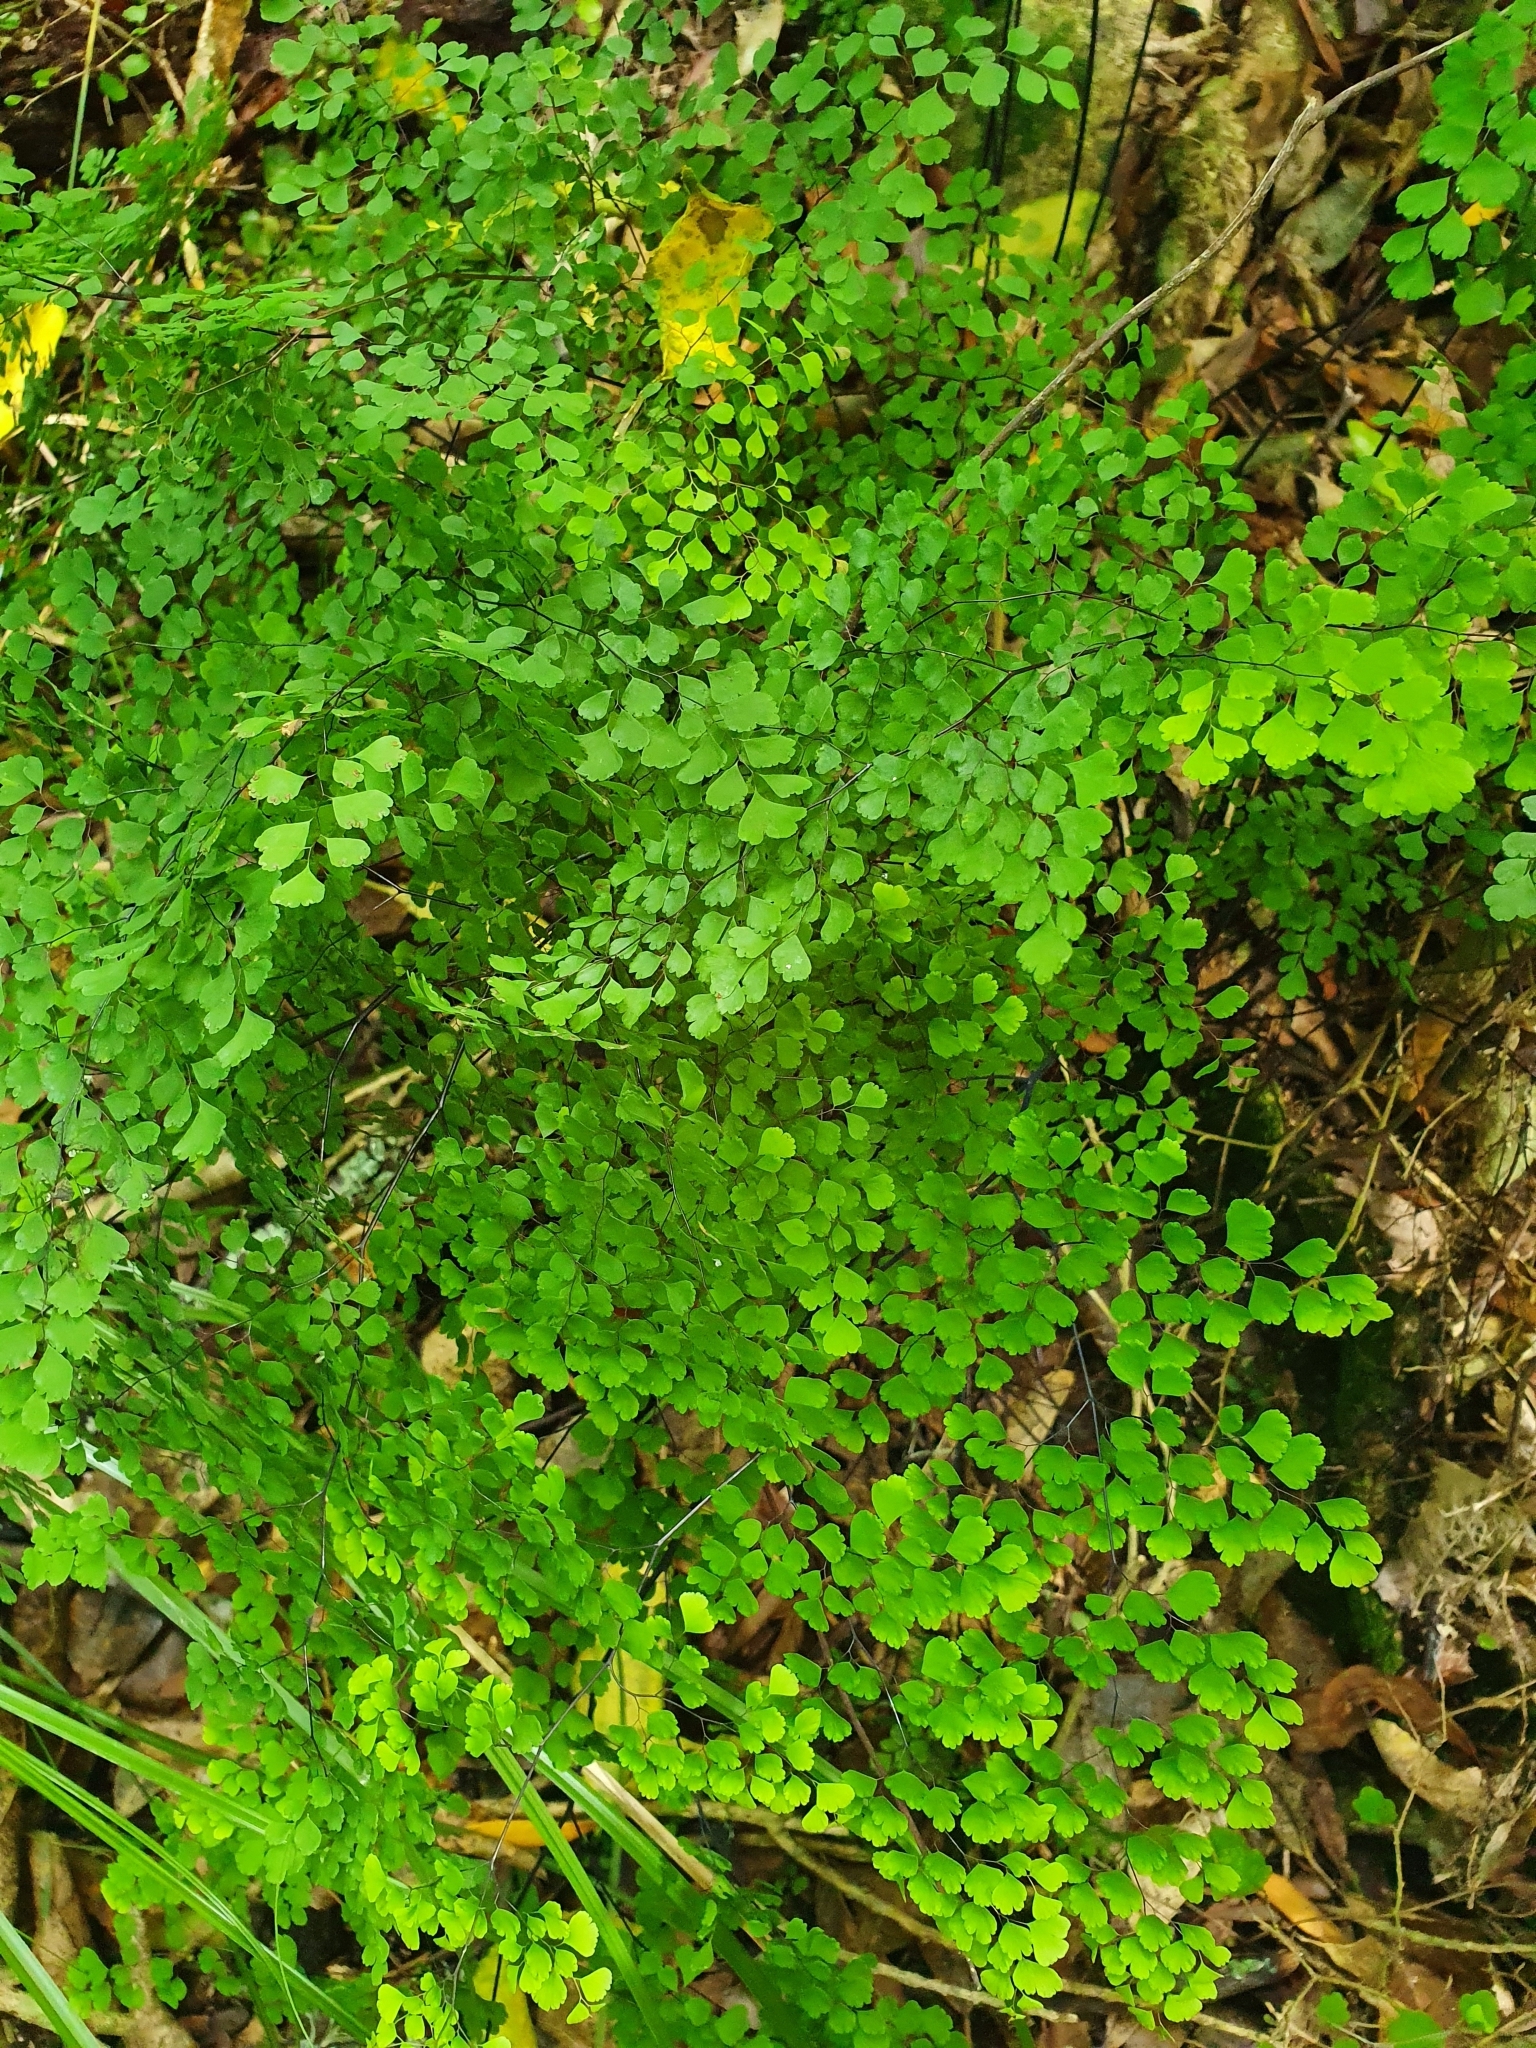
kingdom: Plantae
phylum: Tracheophyta
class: Polypodiopsida
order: Polypodiales
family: Pteridaceae
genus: Adiantum
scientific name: Adiantum raddianum
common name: Delta maidenhair fern
